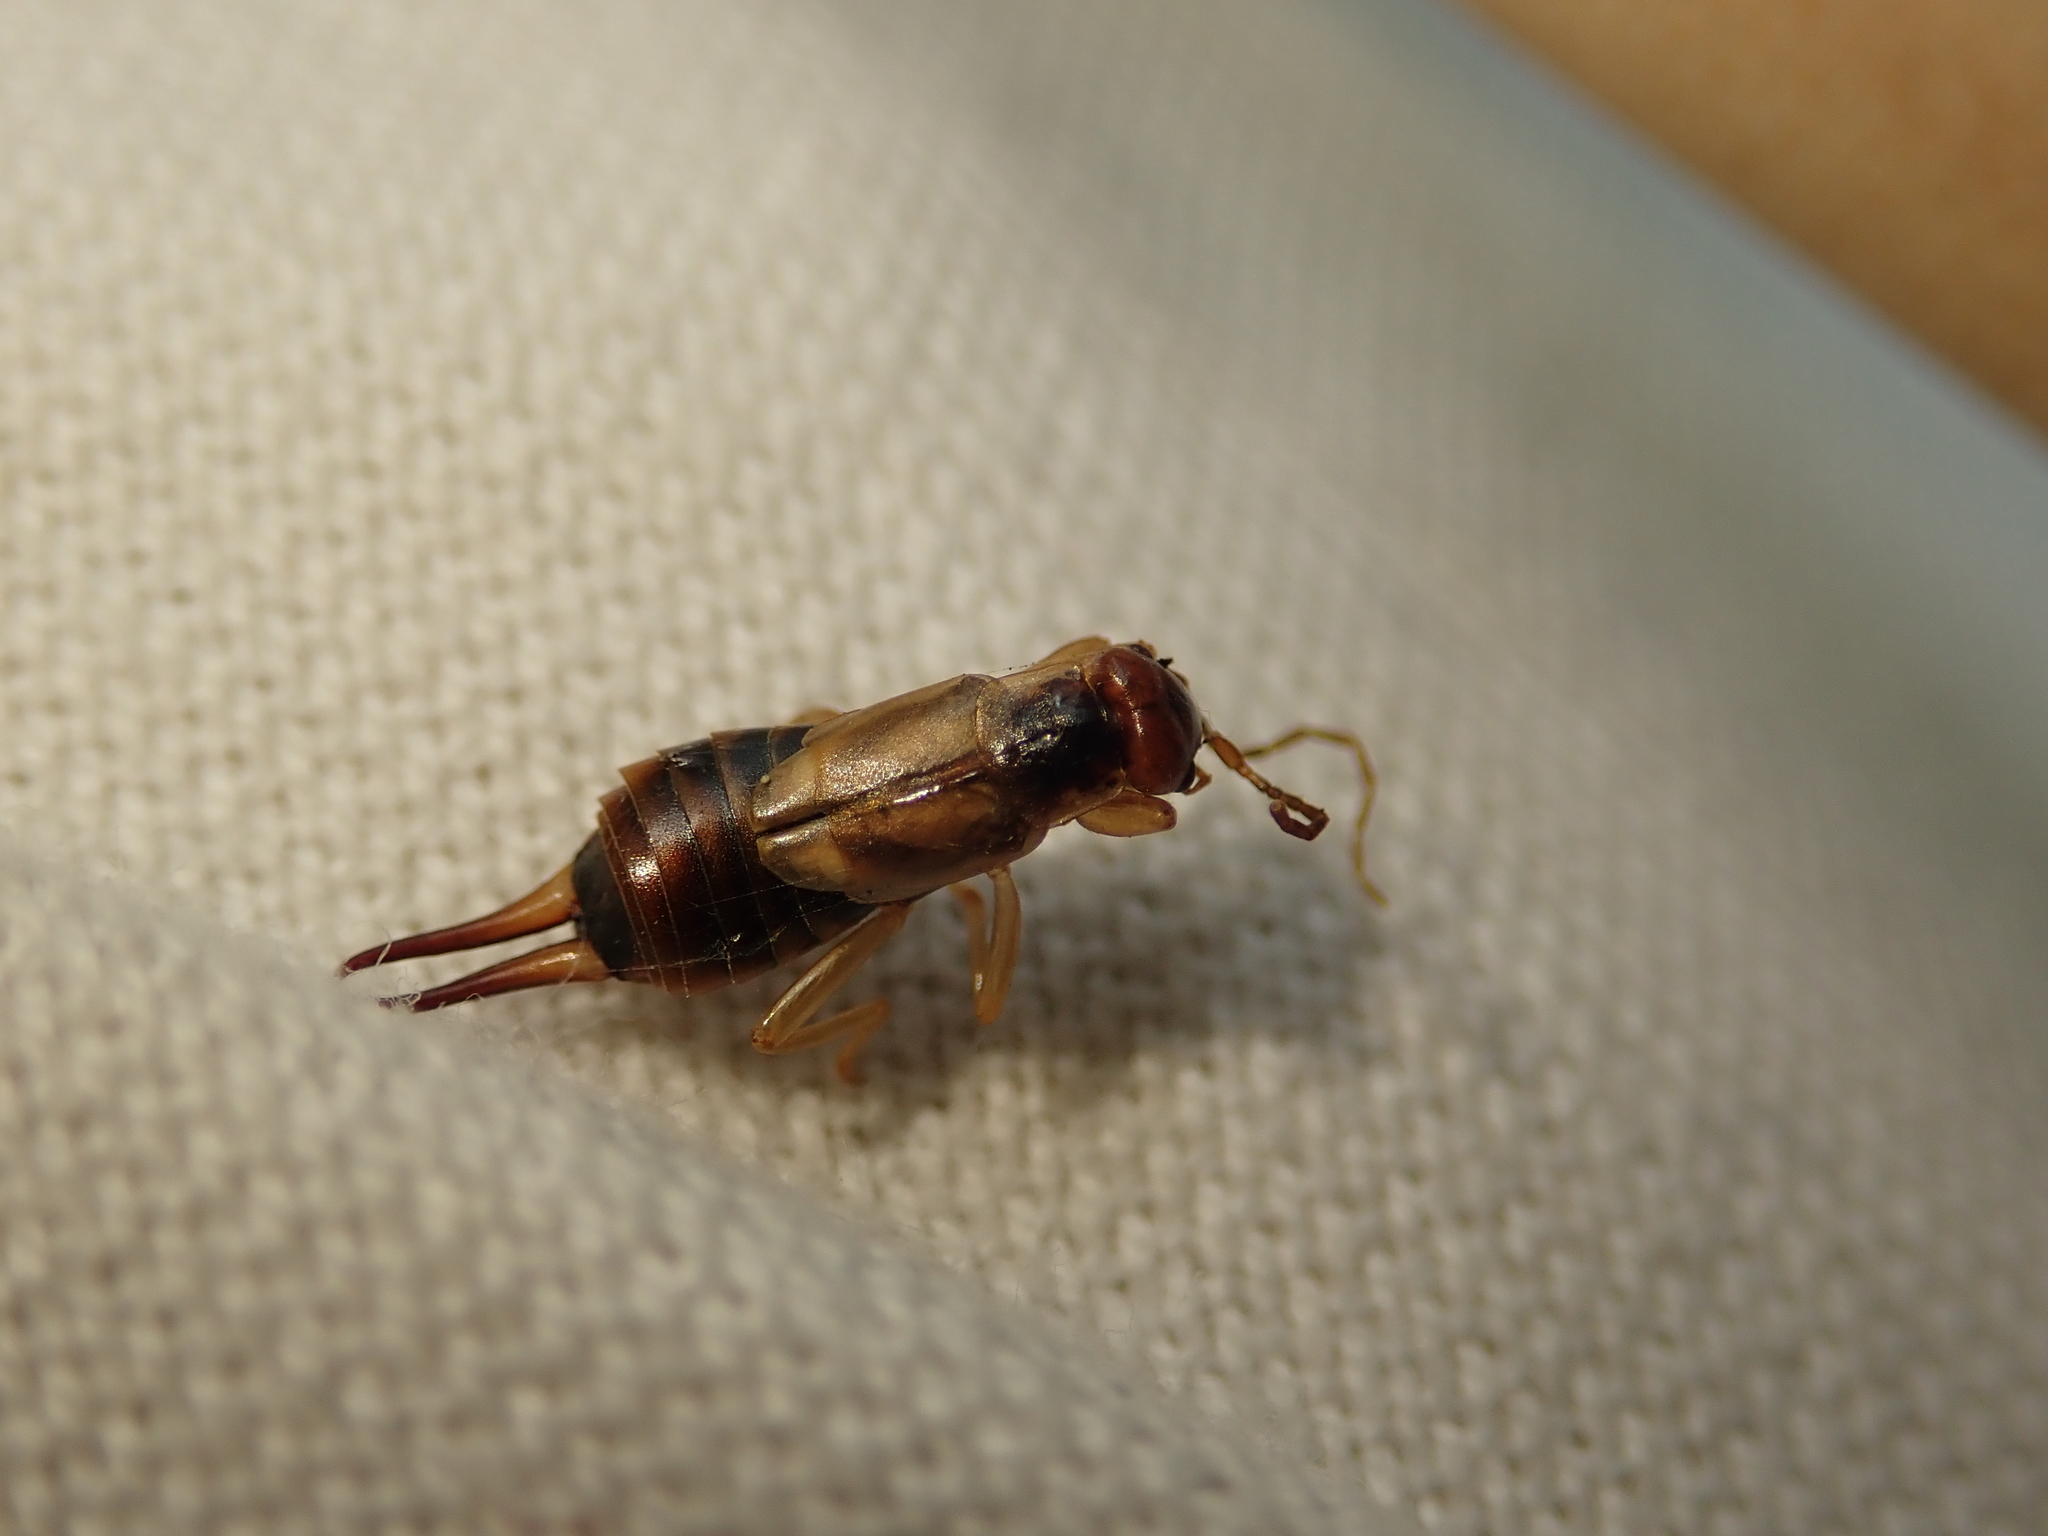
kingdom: Animalia
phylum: Arthropoda
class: Insecta
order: Dermaptera
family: Forficulidae
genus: Forficula
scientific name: Forficula
